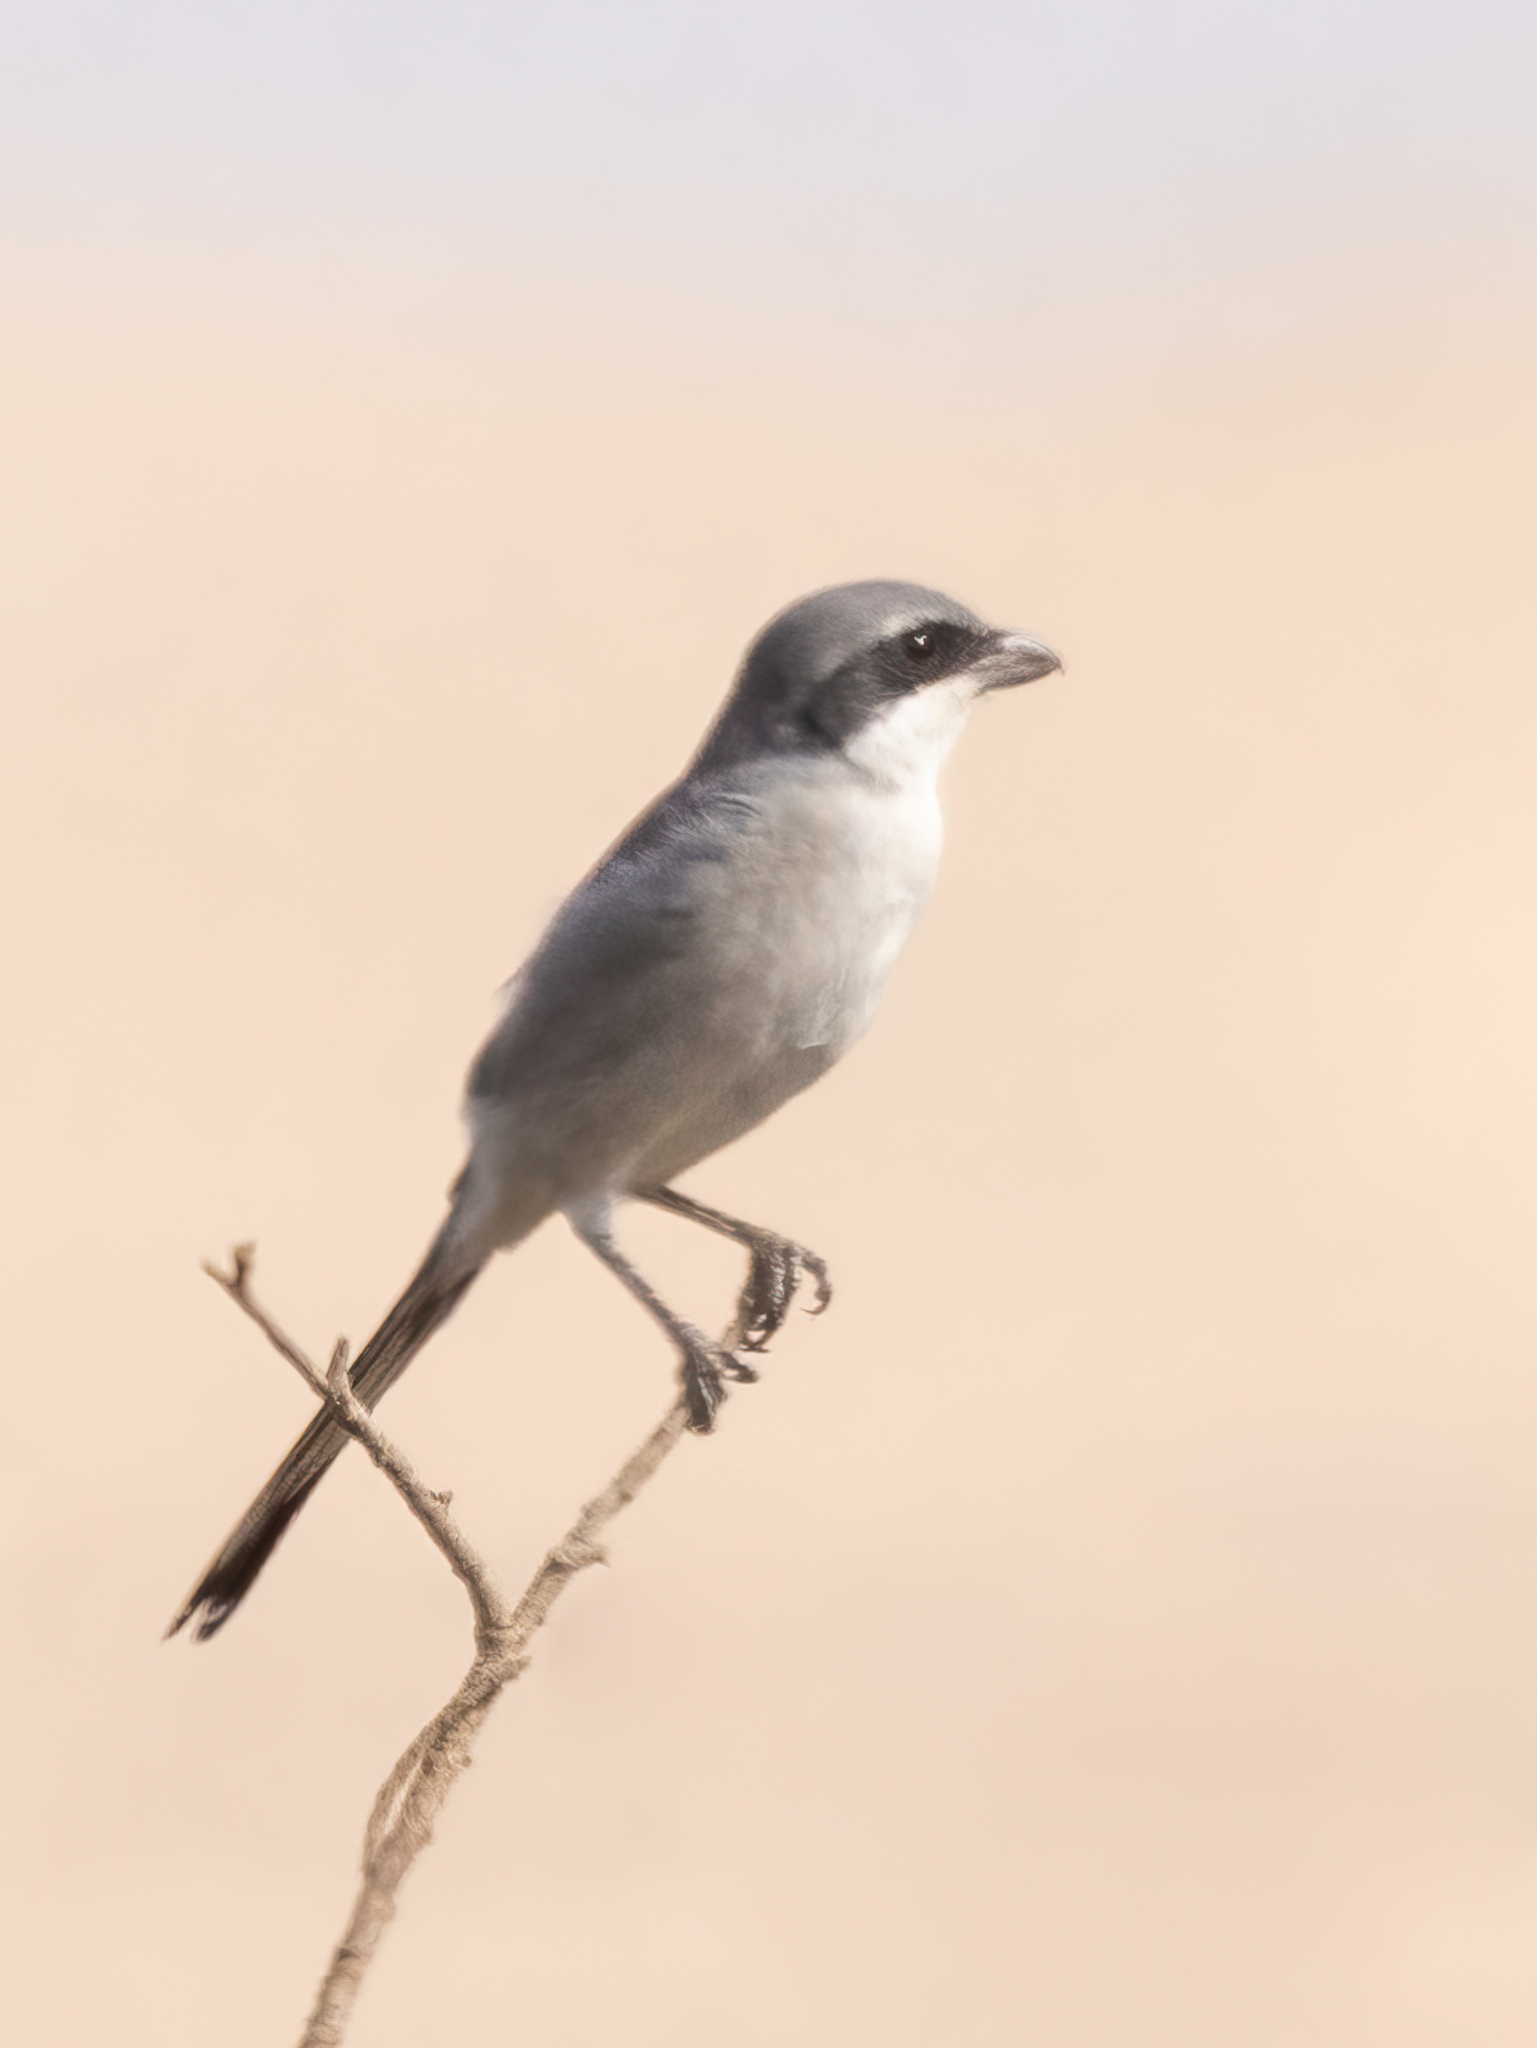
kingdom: Animalia
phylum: Chordata
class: Aves
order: Passeriformes
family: Laniidae
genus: Lanius
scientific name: Lanius excubitor
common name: Great grey shrike
